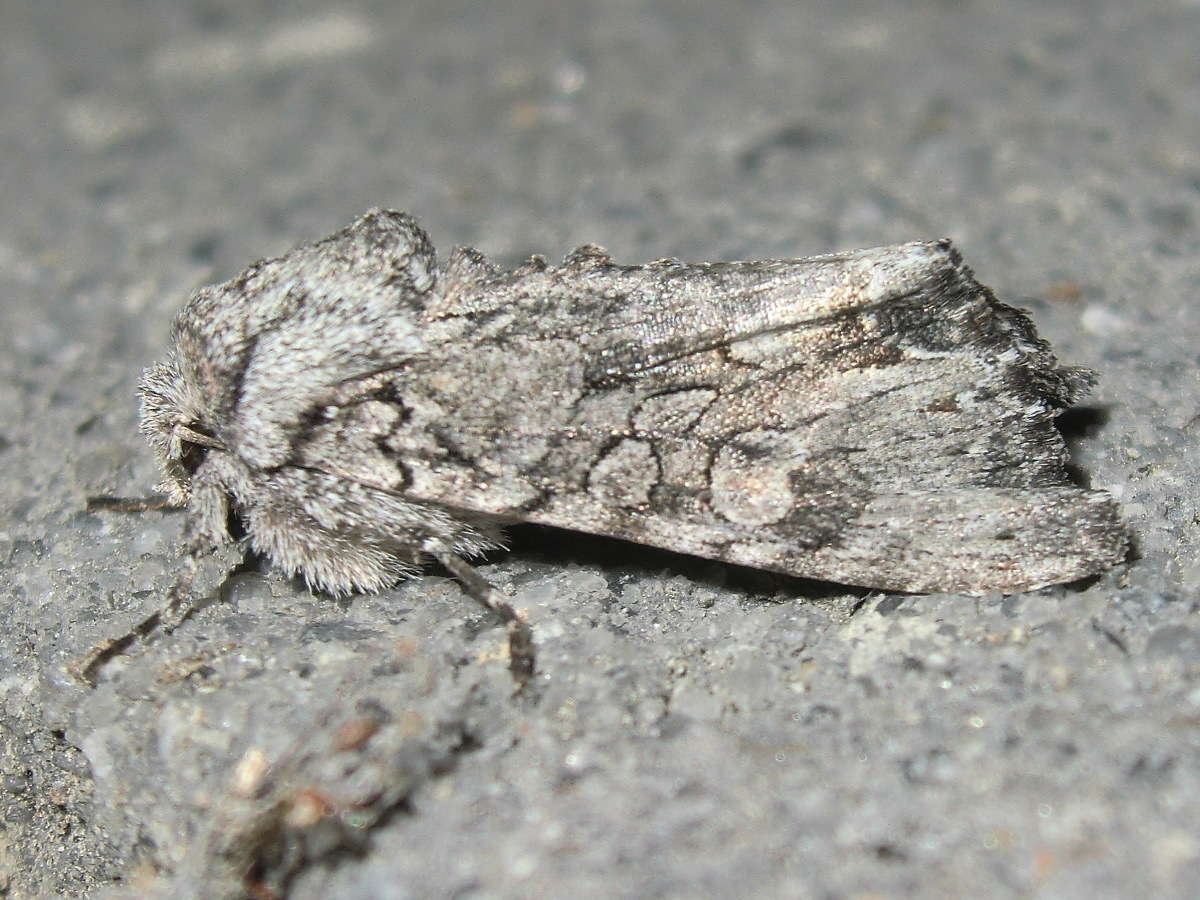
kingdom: Animalia
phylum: Arthropoda
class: Insecta
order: Lepidoptera
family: Noctuidae
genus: Neumichtis
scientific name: Neumichtis expulsa
